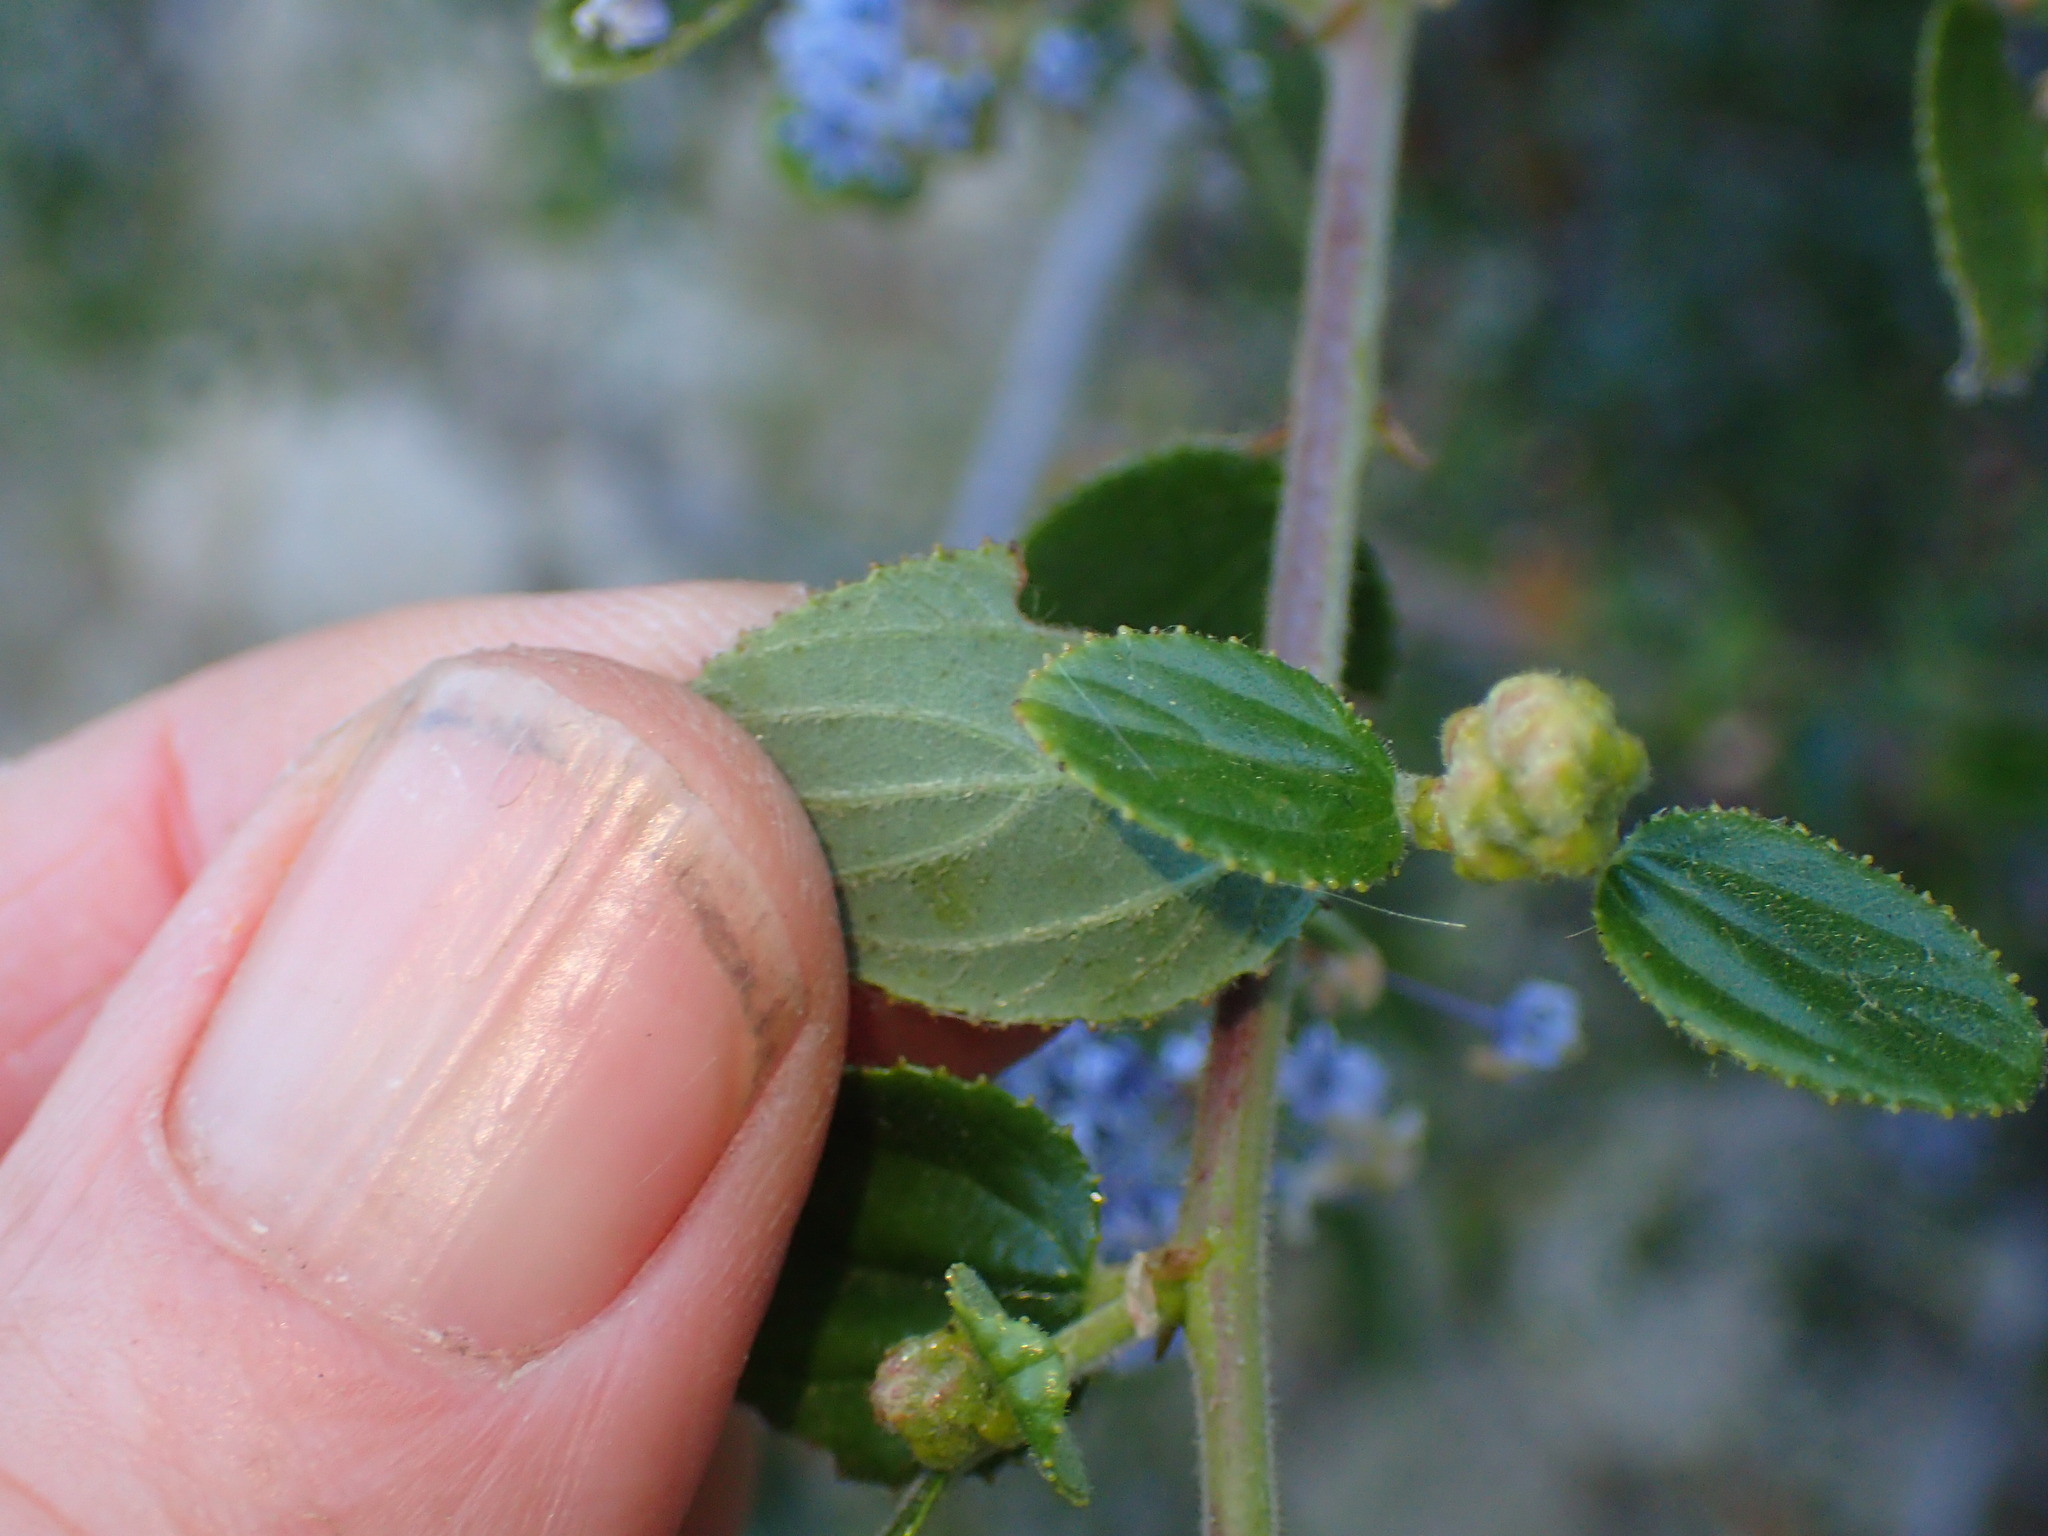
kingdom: Plantae
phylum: Tracheophyta
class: Magnoliopsida
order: Rosales
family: Rhamnaceae
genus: Ceanothus
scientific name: Ceanothus oliganthus
